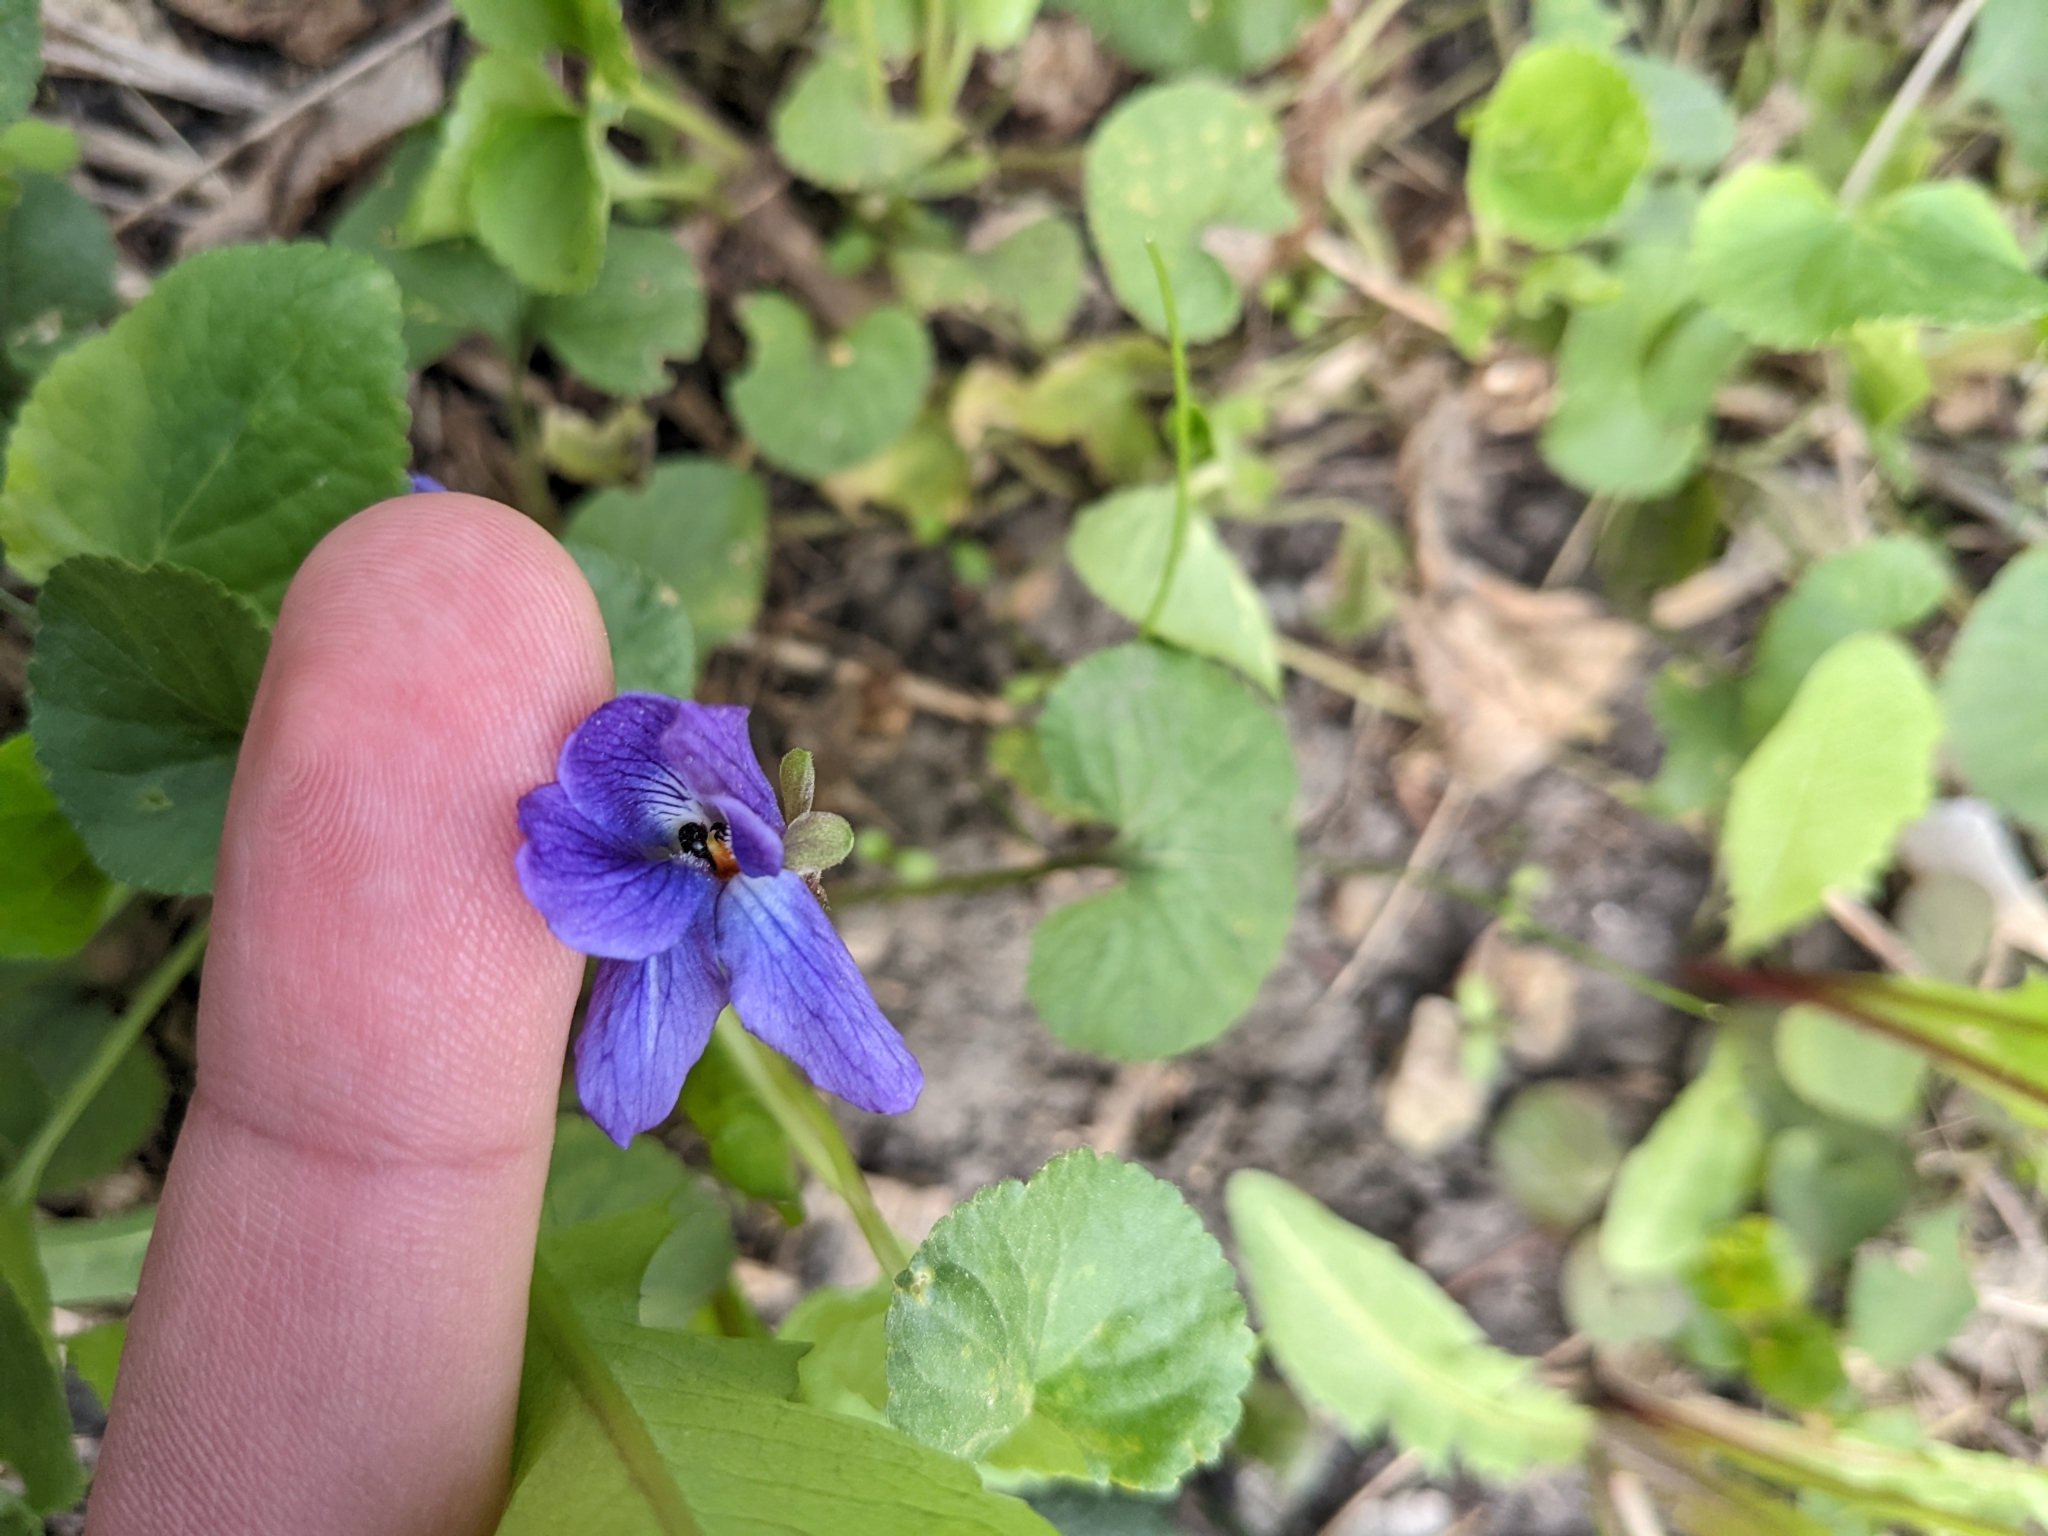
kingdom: Plantae
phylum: Tracheophyta
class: Magnoliopsida
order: Malpighiales
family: Violaceae
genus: Viola
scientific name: Viola odorata
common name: Sweet violet
